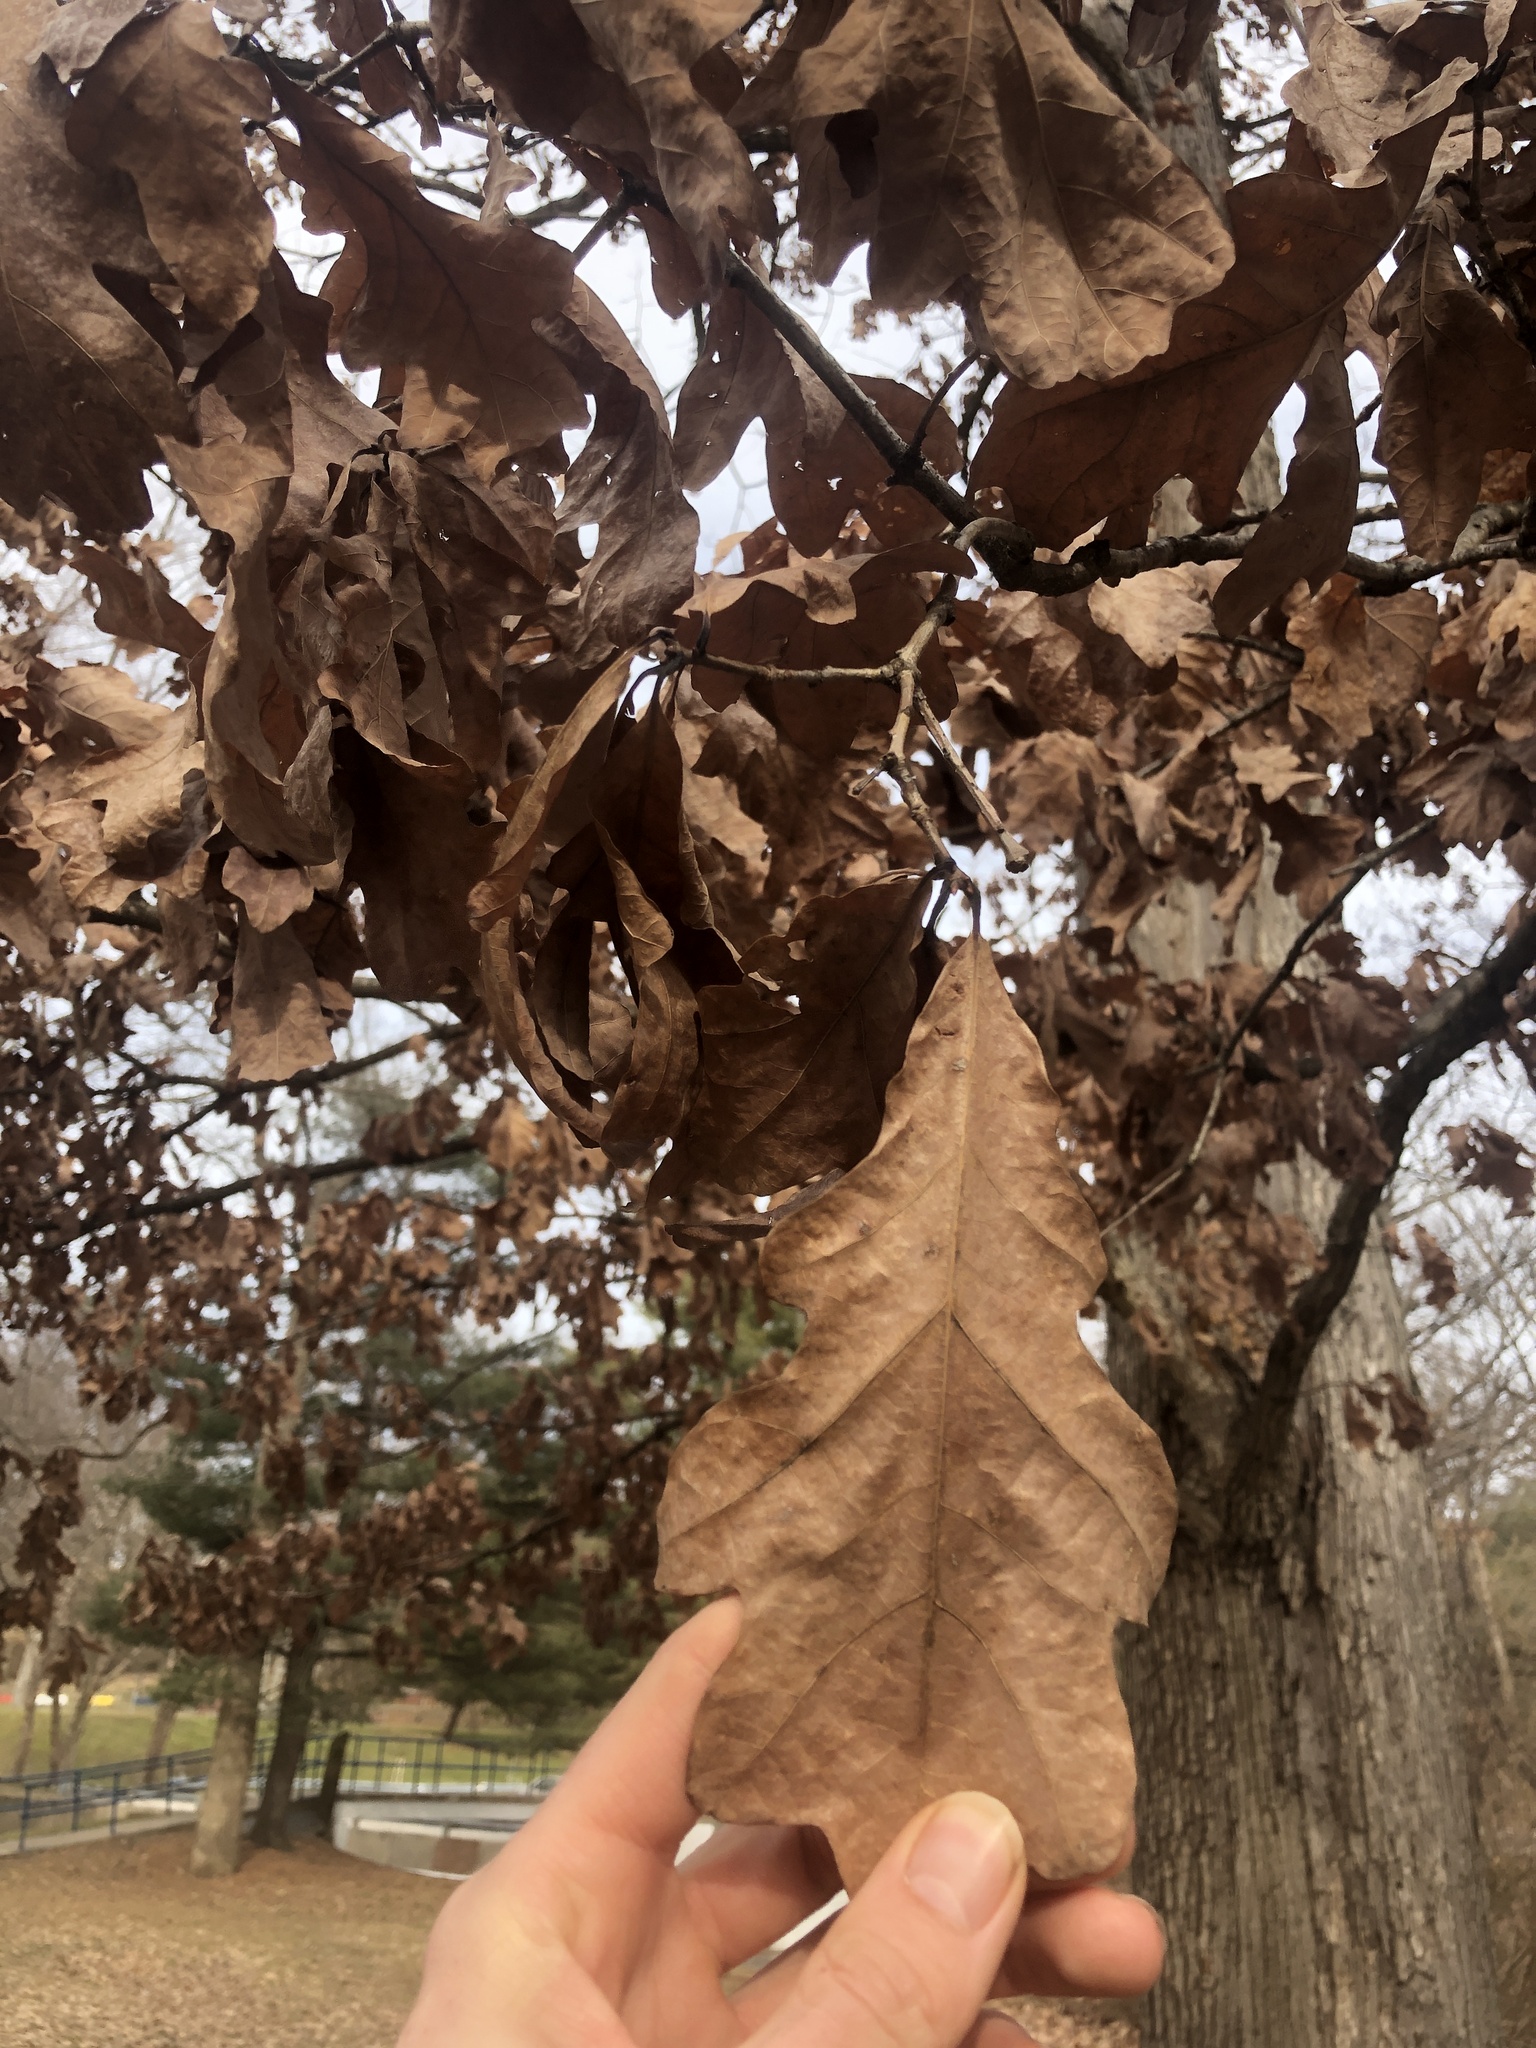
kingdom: Plantae
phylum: Tracheophyta
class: Magnoliopsida
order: Fagales
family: Fagaceae
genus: Quercus
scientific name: Quercus alba
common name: White oak
